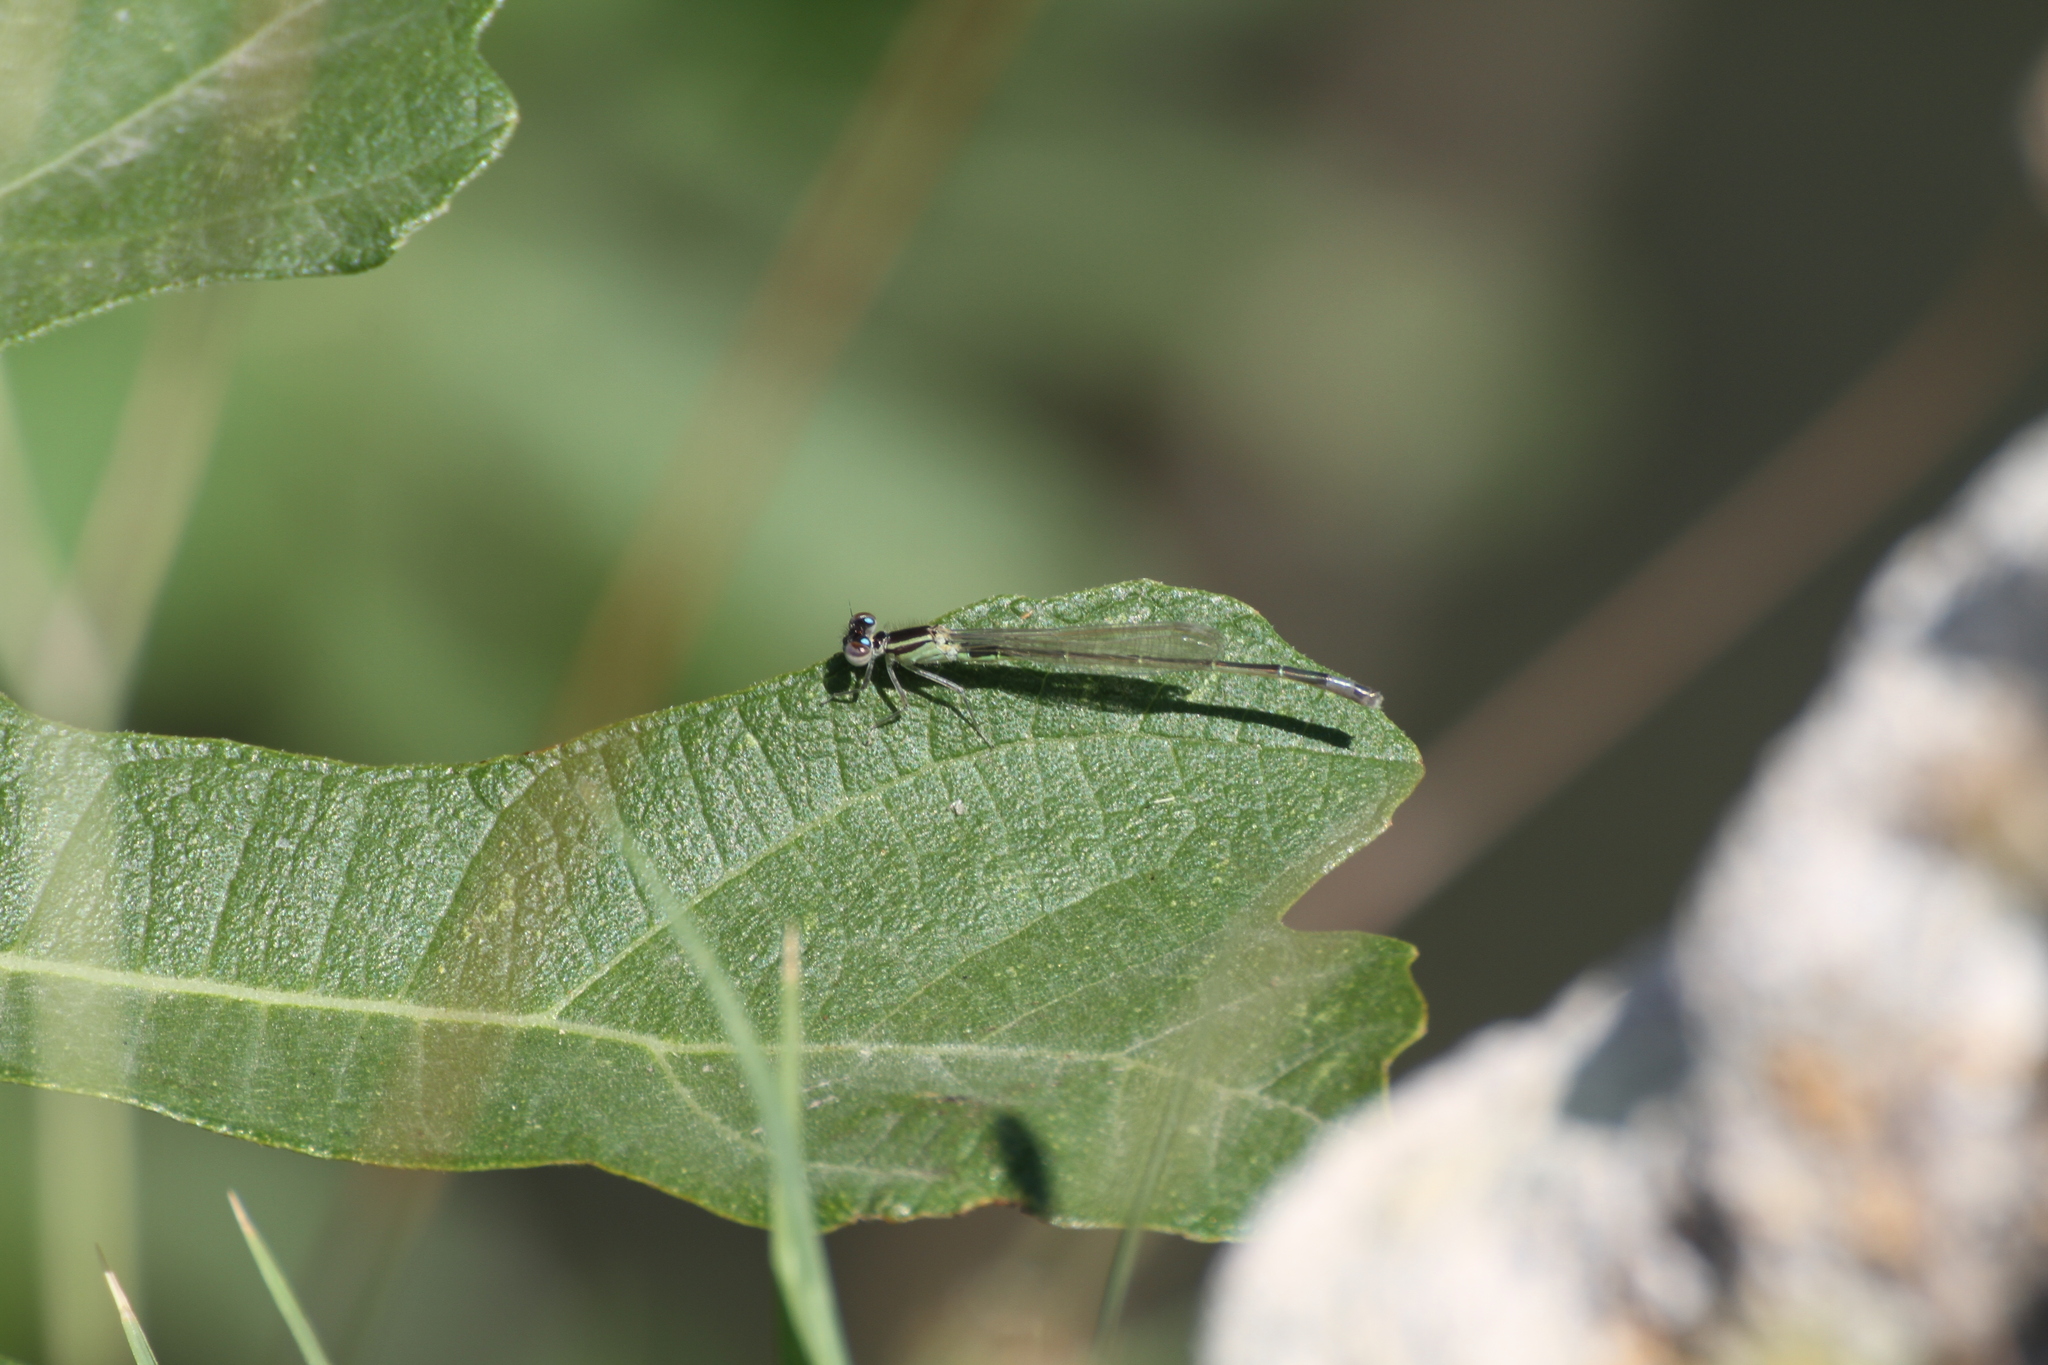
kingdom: Animalia
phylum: Arthropoda
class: Insecta
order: Odonata
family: Coenagrionidae
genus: Ischnura
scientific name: Ischnura elegans
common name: Blue-tailed damselfly
